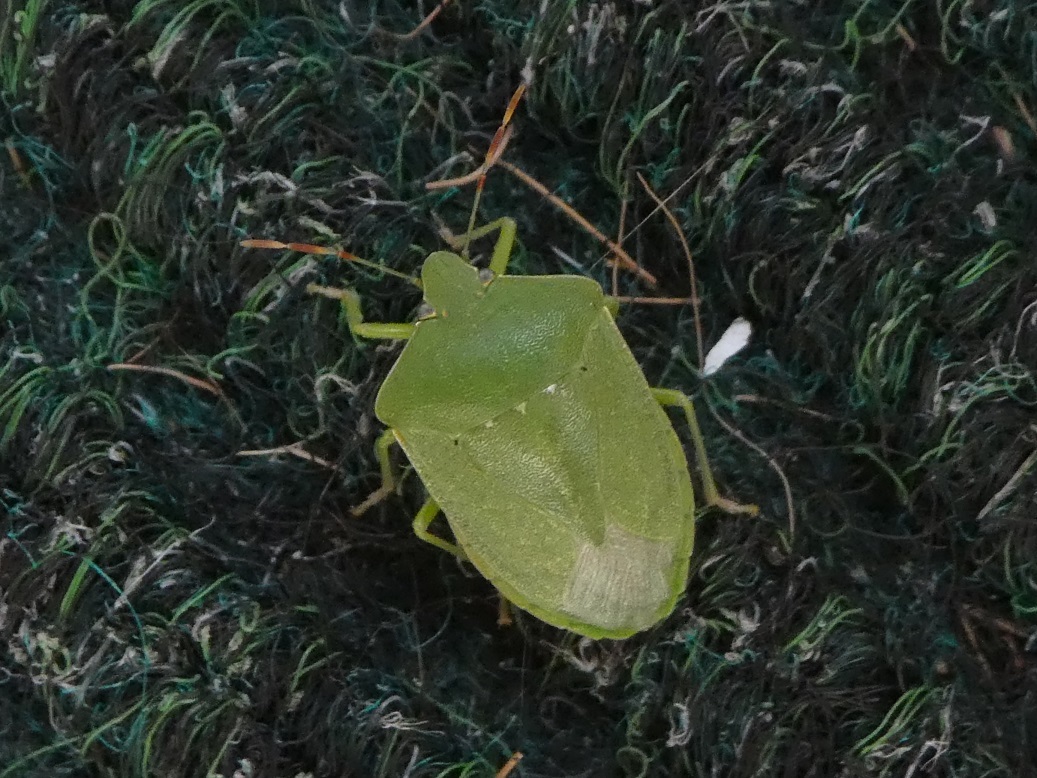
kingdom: Animalia
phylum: Arthropoda
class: Insecta
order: Hemiptera
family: Pentatomidae
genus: Nezara
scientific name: Nezara viridula
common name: Southern green stink bug
